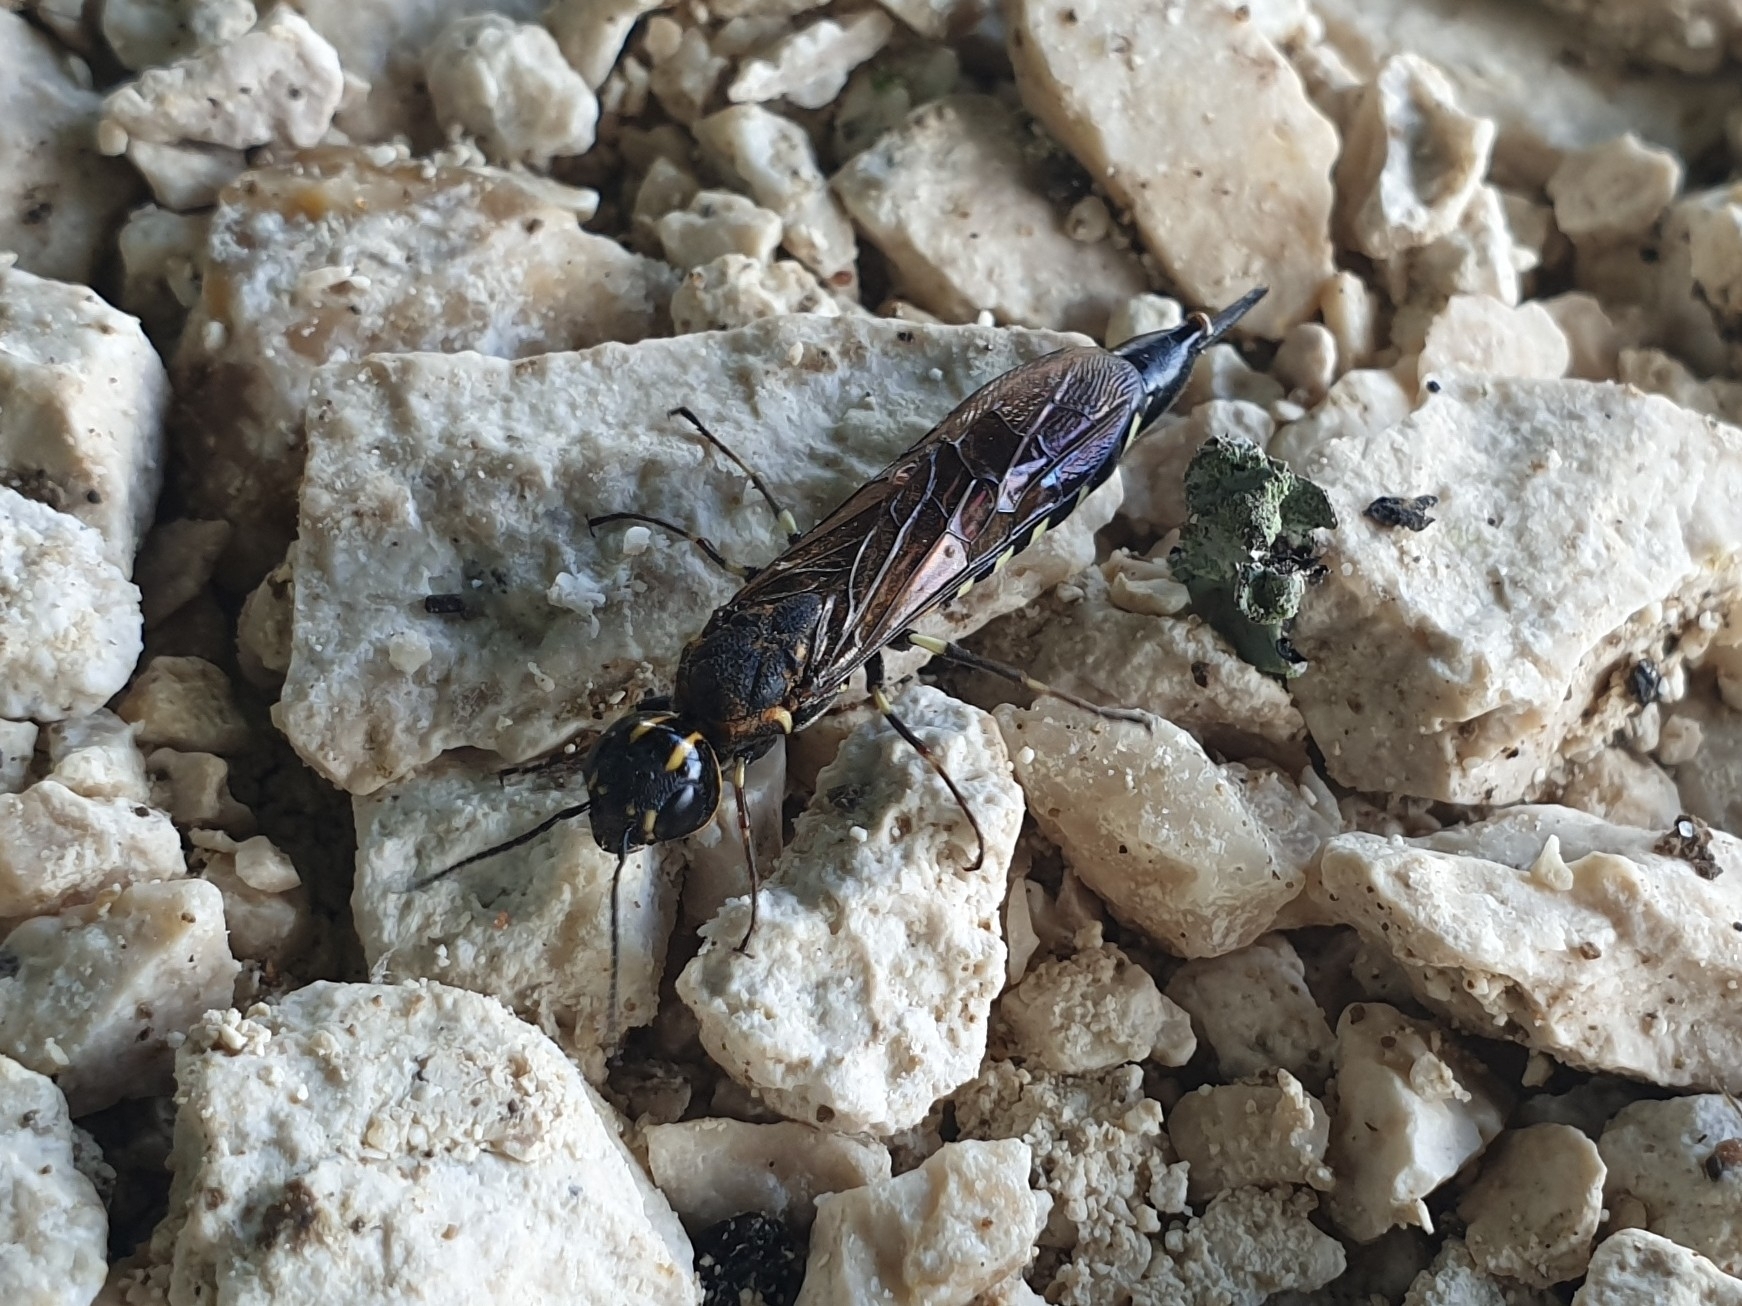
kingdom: Animalia
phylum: Arthropoda
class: Insecta
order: Hymenoptera
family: Xiphydriidae
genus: Xiphydria
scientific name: Xiphydria longicollis
